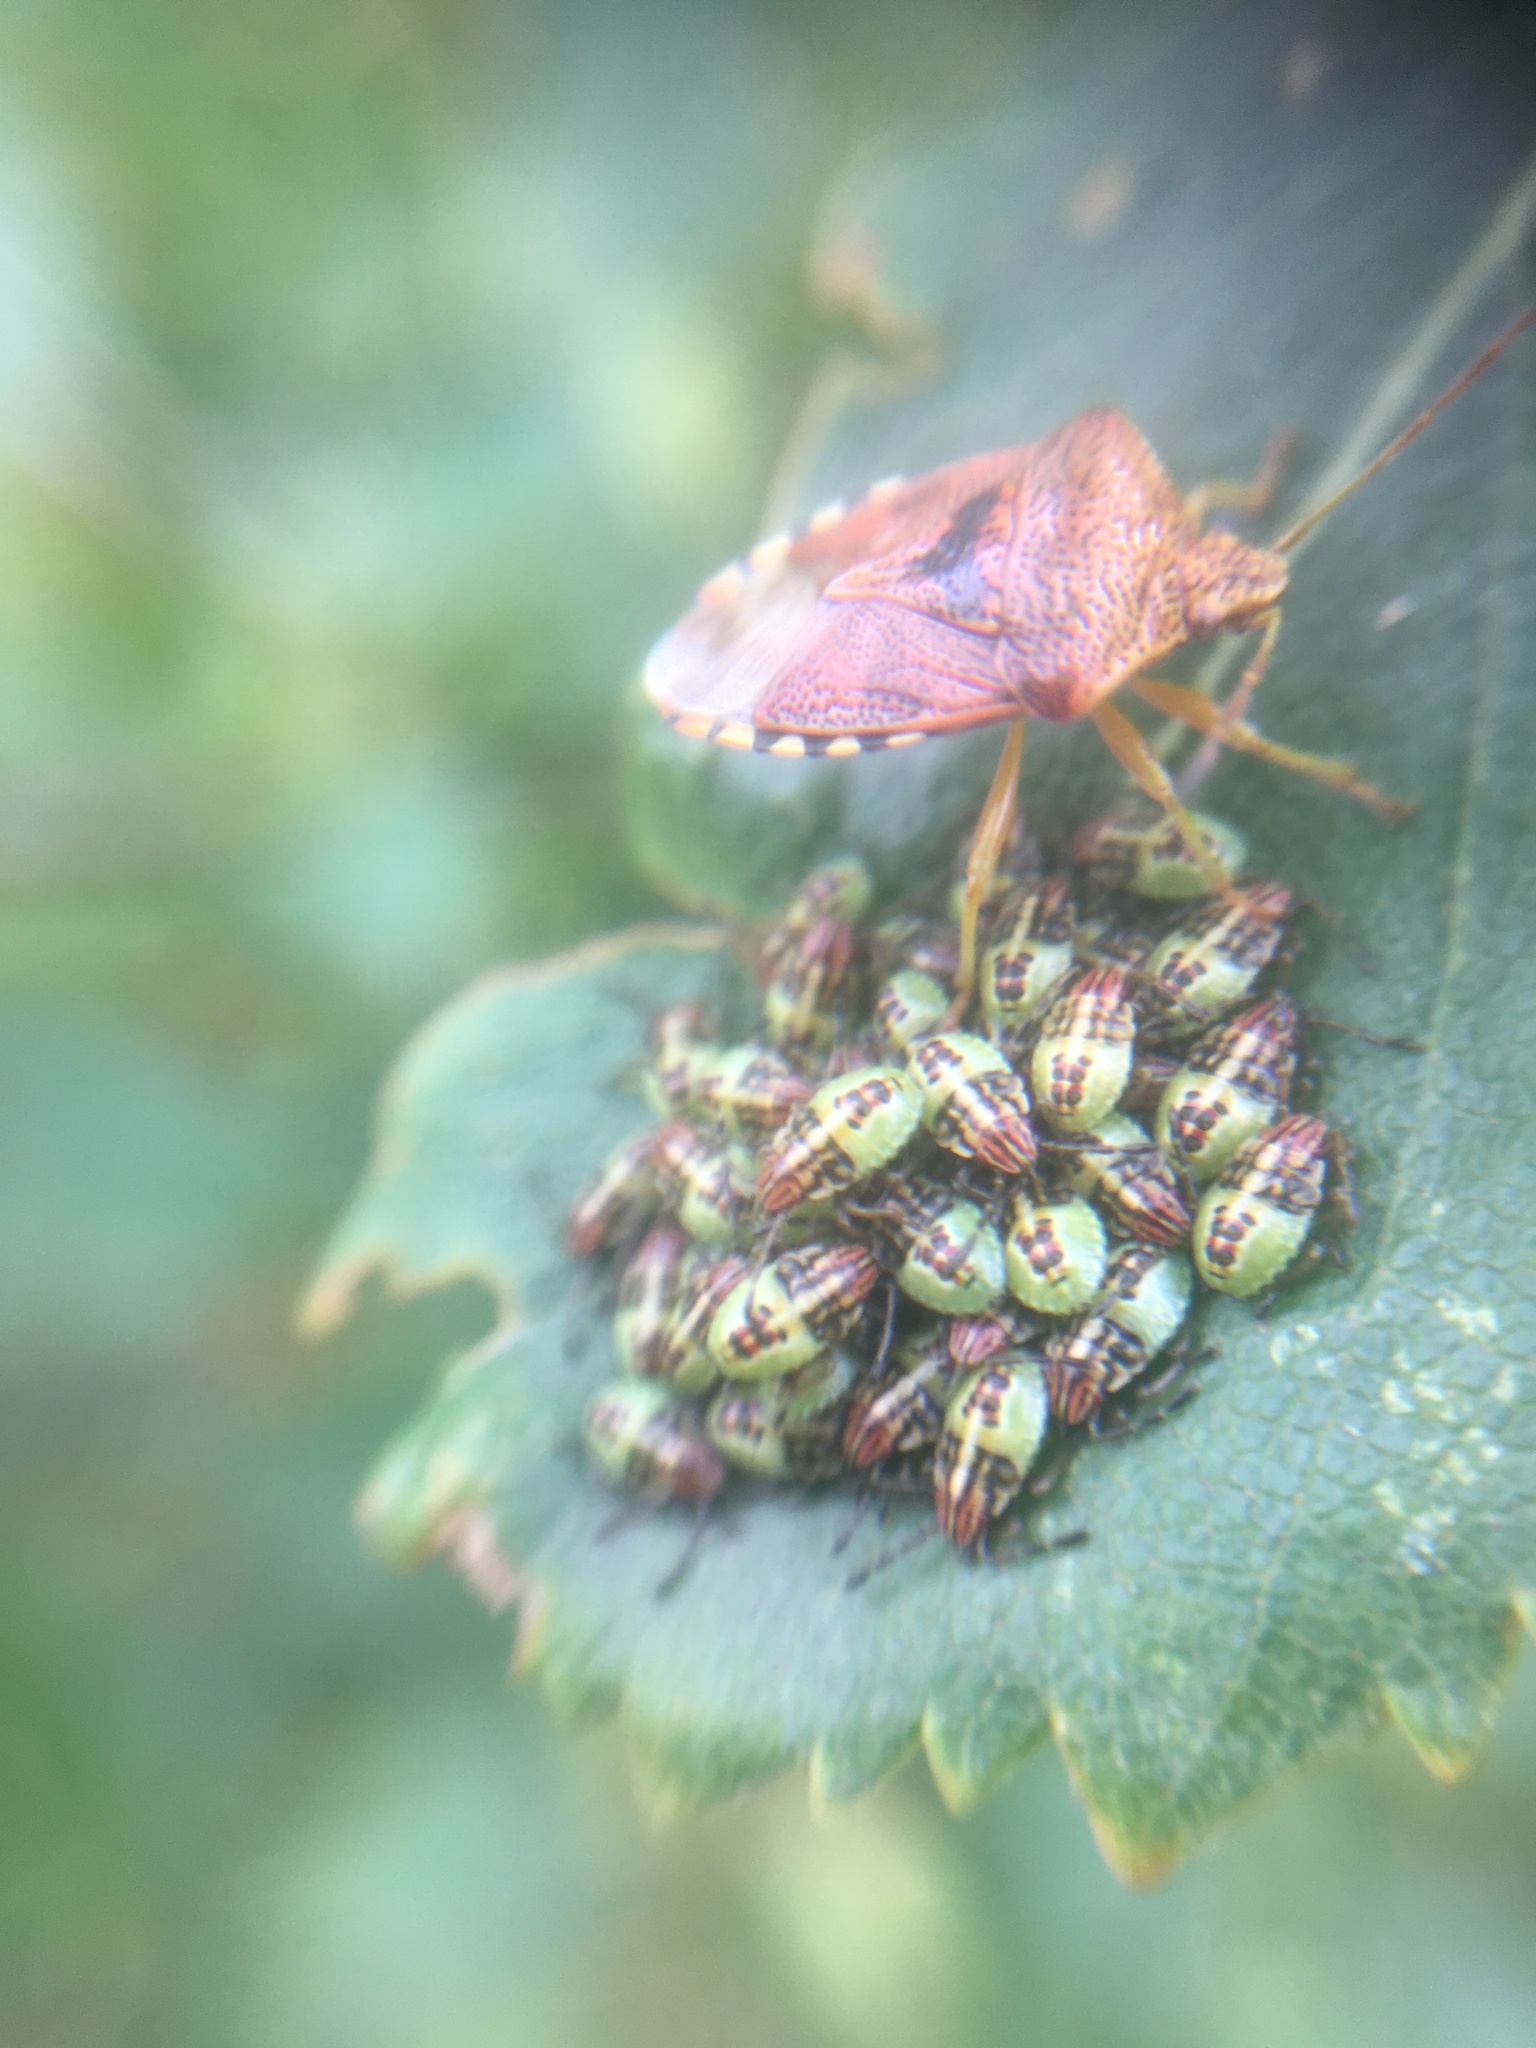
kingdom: Animalia
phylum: Arthropoda
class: Insecta
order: Hemiptera
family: Acanthosomatidae
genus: Elasmucha
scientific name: Elasmucha grisea
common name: Parent bug
